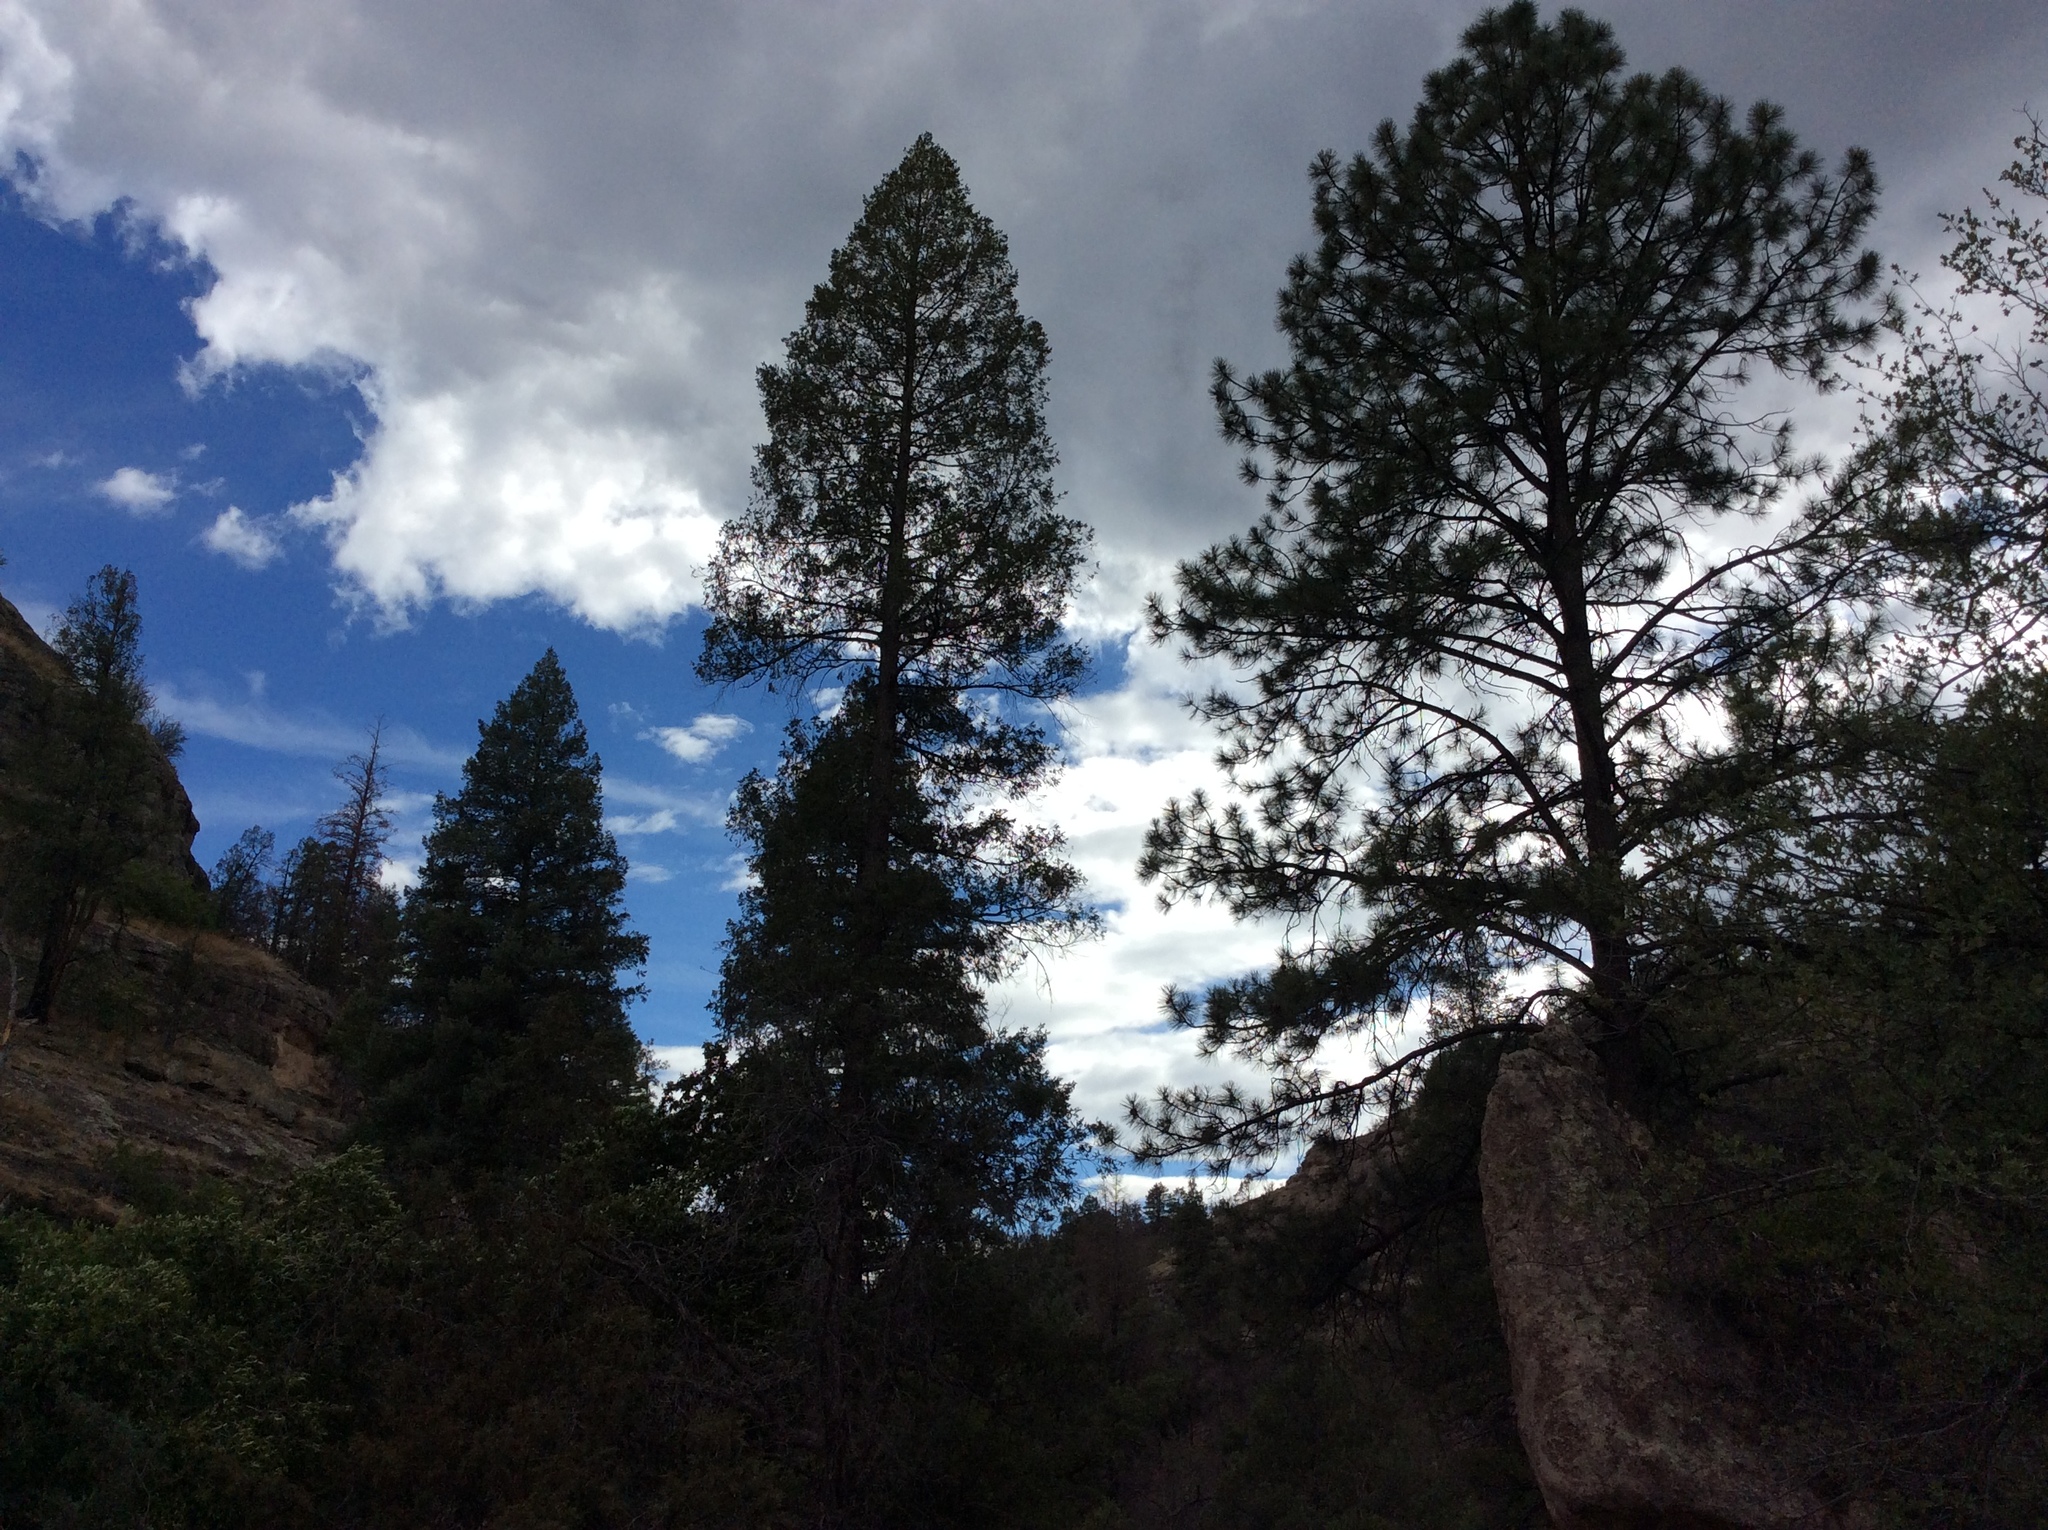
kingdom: Plantae
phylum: Tracheophyta
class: Pinopsida
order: Pinales
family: Pinaceae
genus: Pinus
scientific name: Pinus ponderosa
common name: Western yellow-pine
